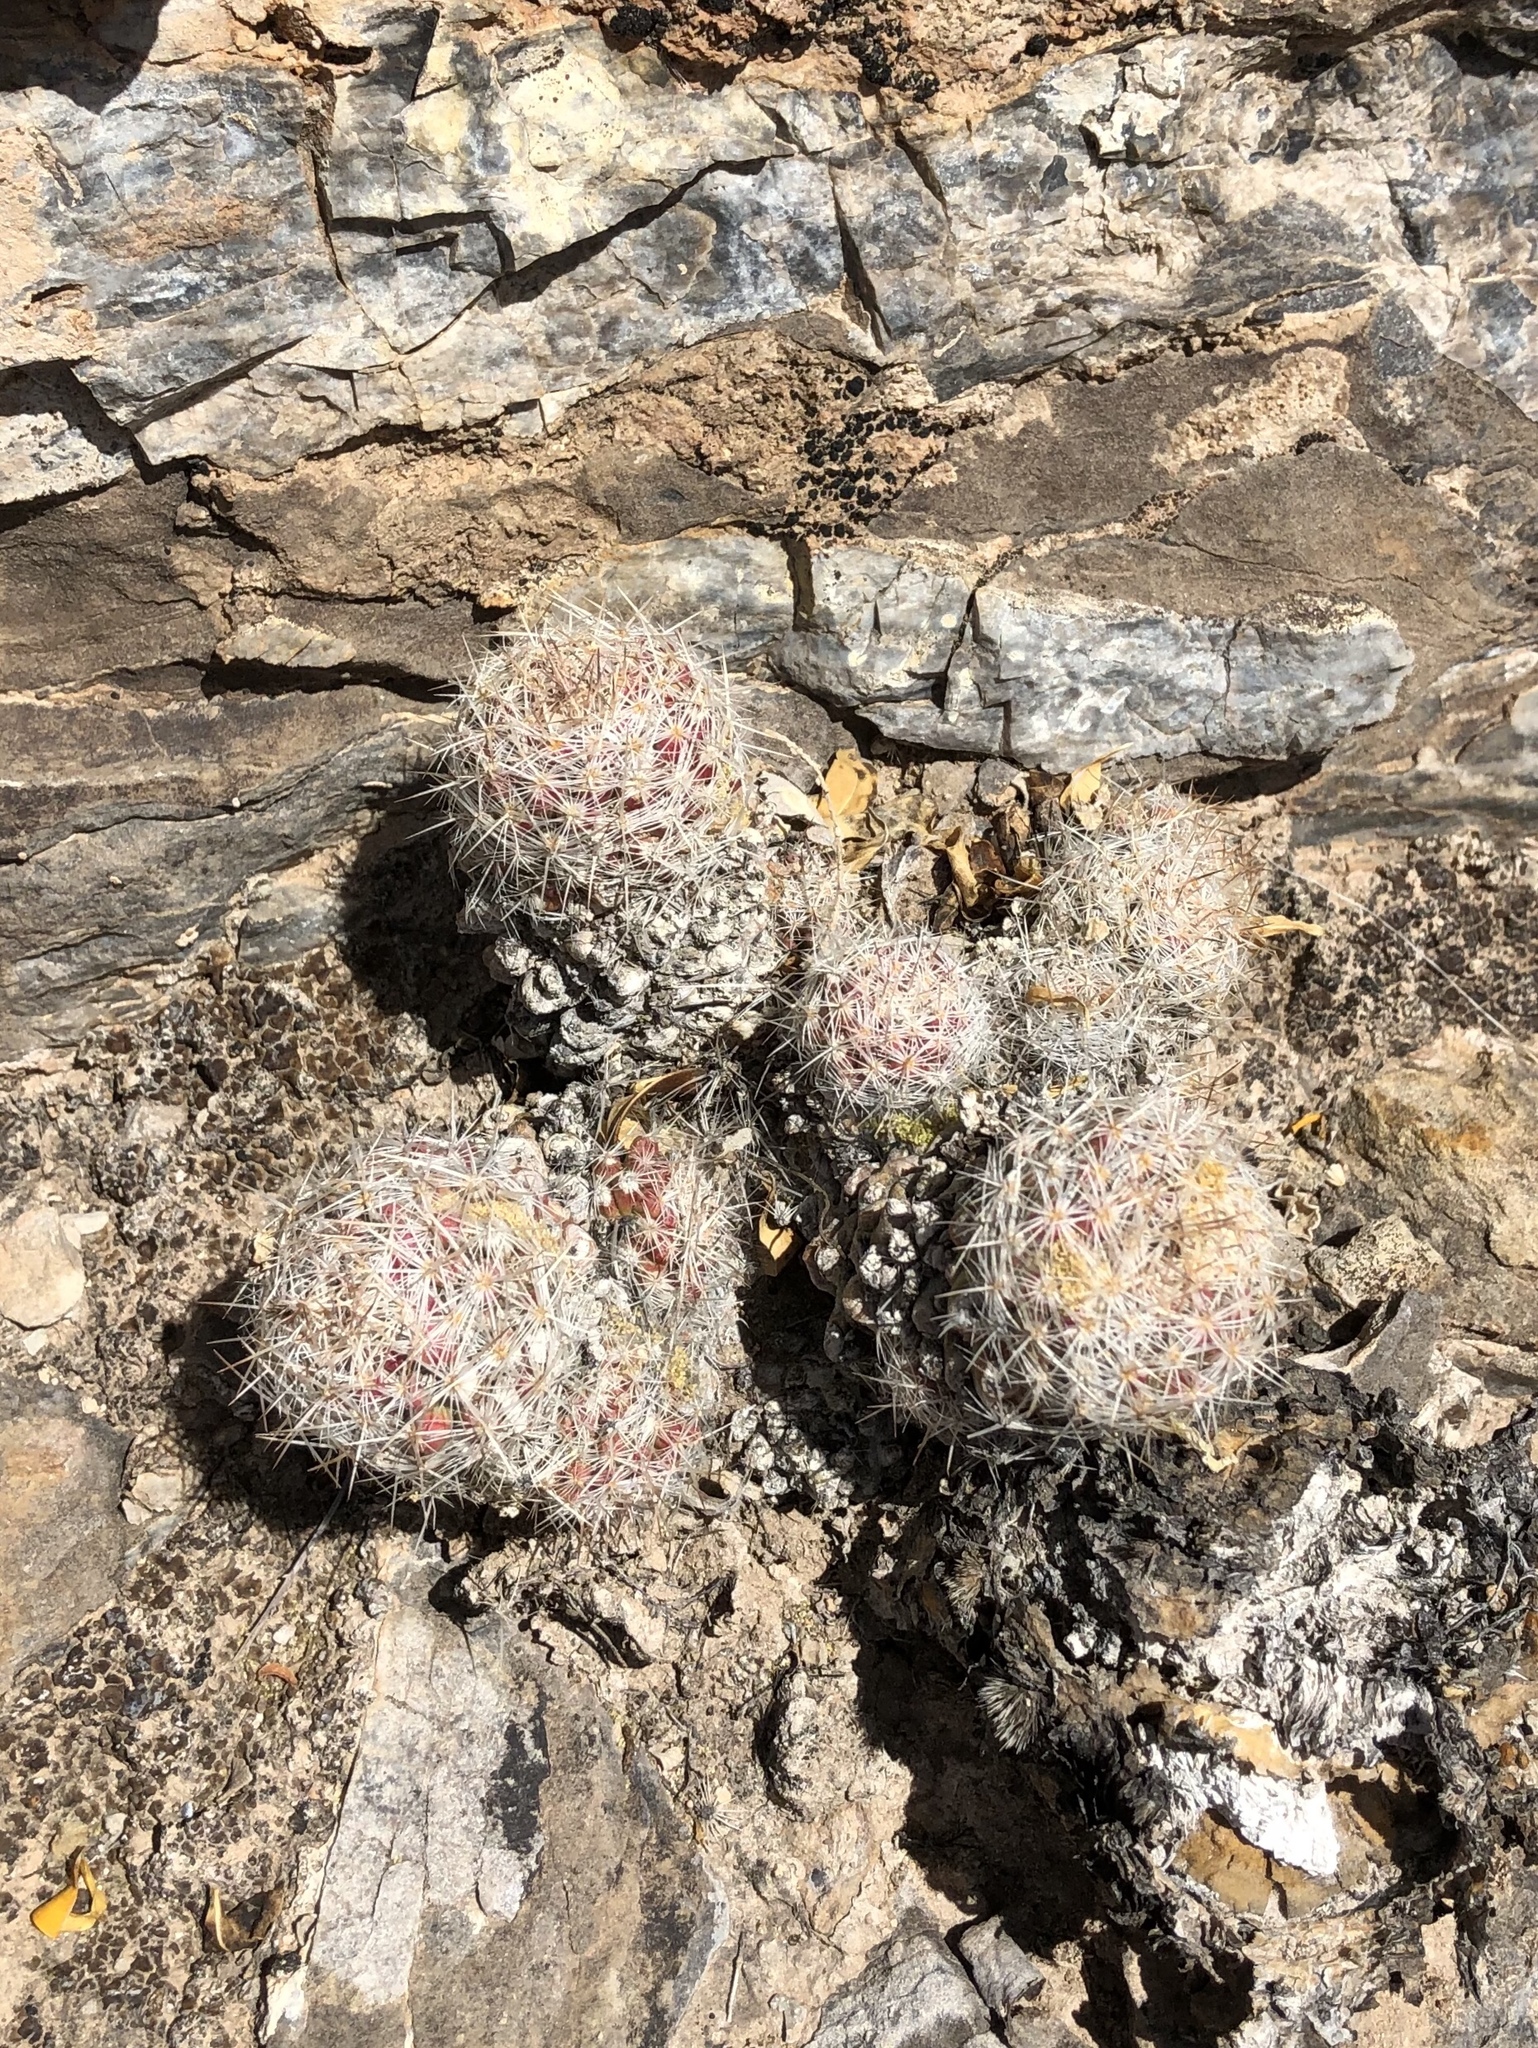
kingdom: Plantae
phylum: Tracheophyta
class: Magnoliopsida
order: Caryophyllales
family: Cactaceae
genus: Pelecyphora
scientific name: Pelecyphora tuberculosa
